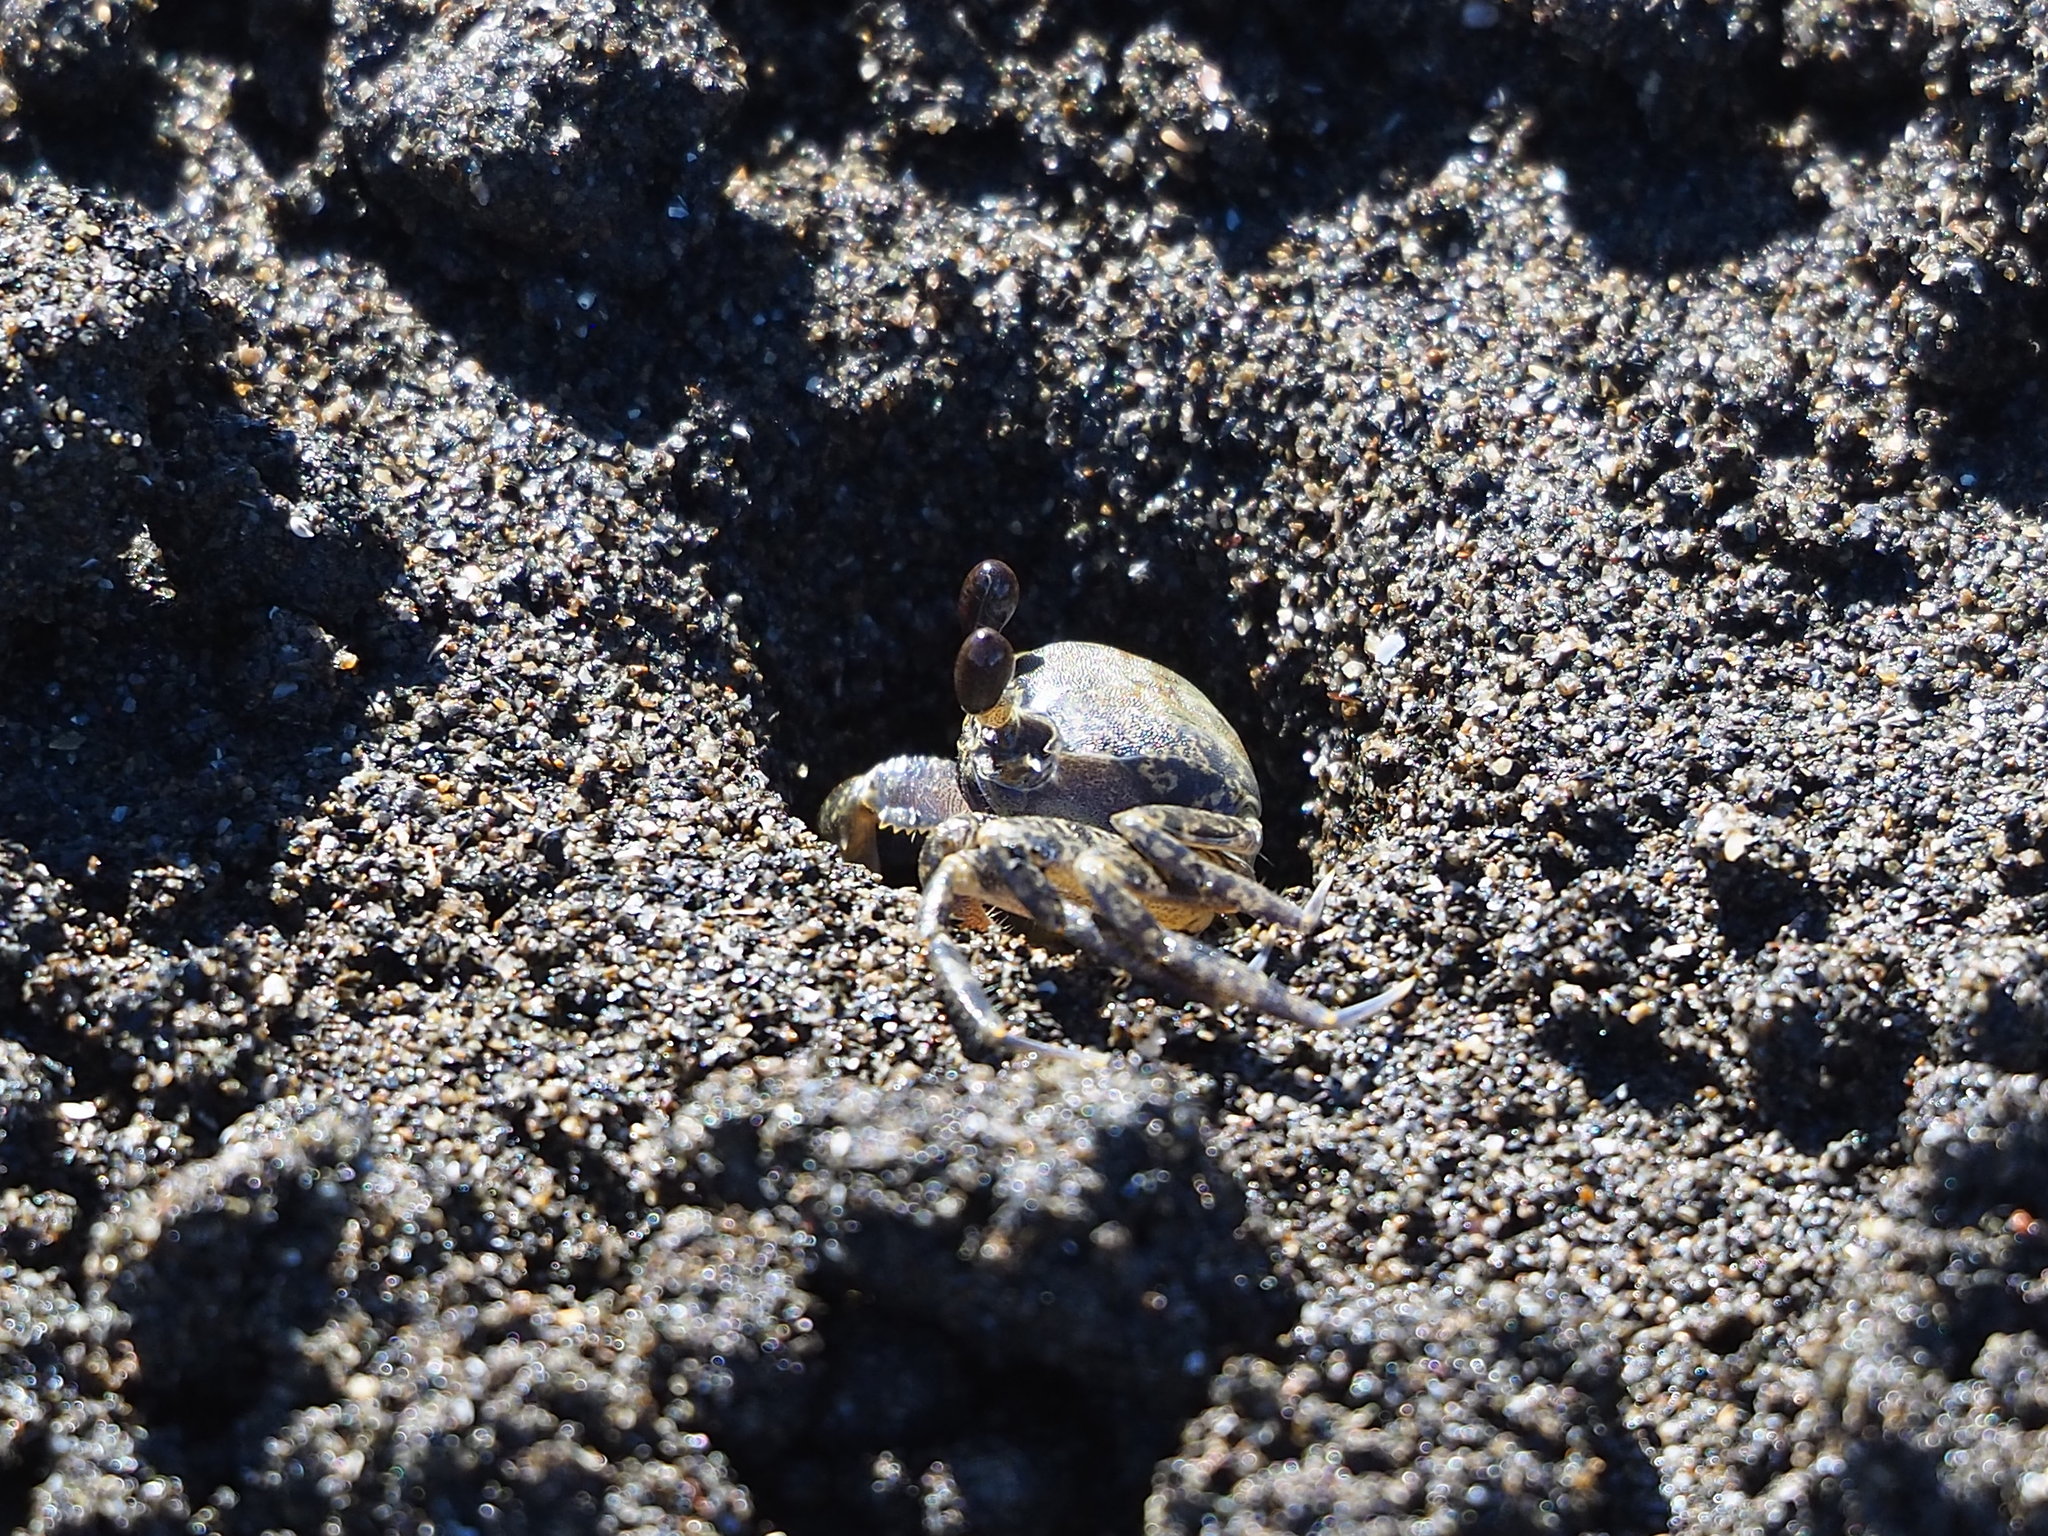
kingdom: Animalia
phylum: Arthropoda
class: Malacostraca
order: Decapoda
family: Ocypodidae
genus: Ocypode
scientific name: Ocypode stimpsoni
